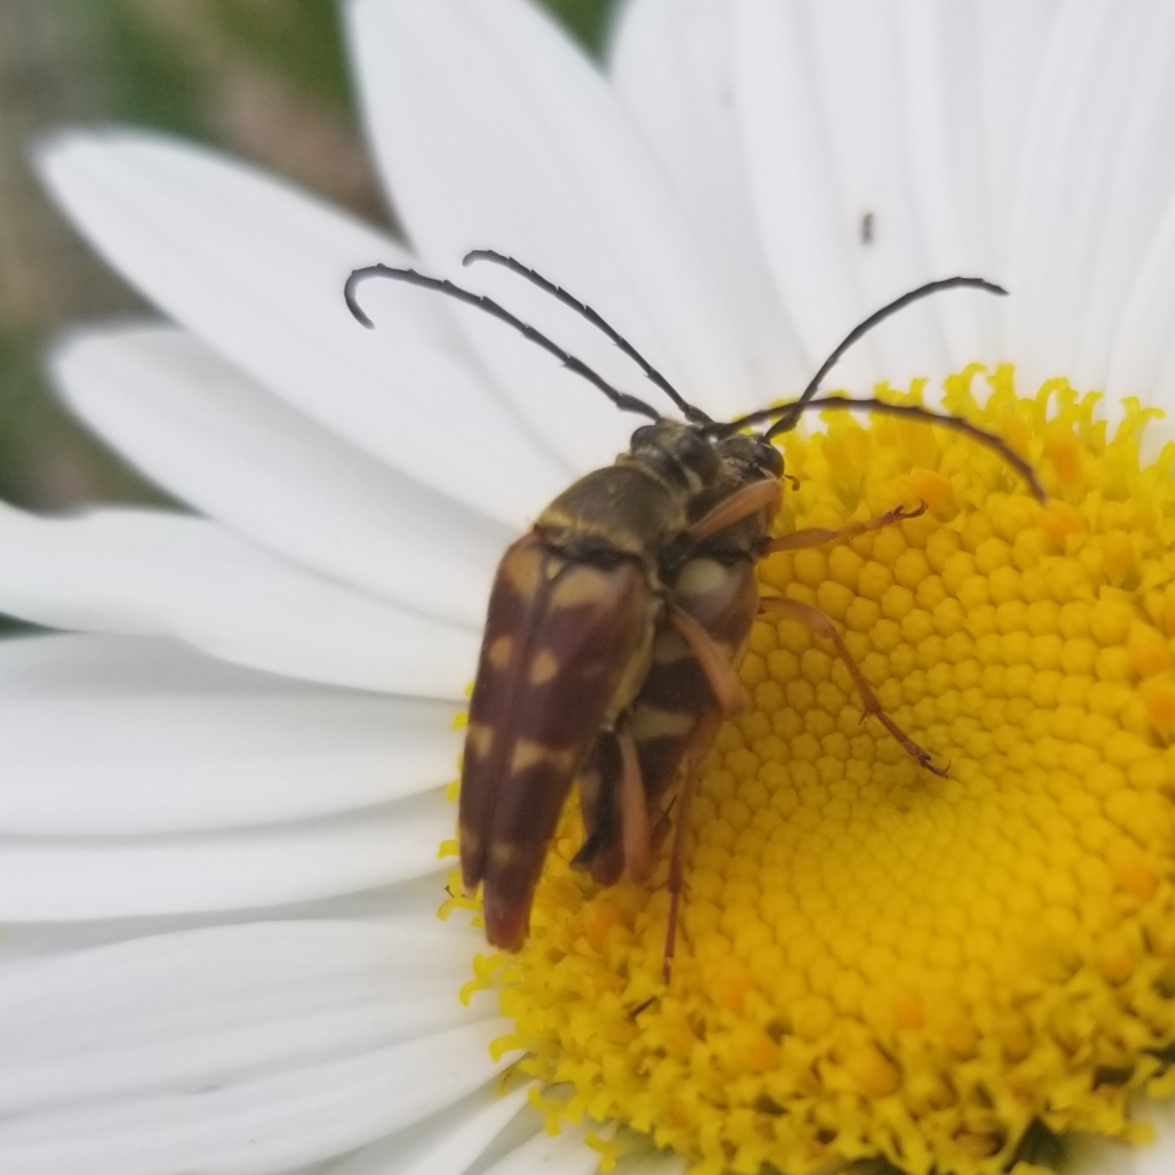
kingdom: Animalia
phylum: Arthropoda
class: Insecta
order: Coleoptera
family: Cerambycidae
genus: Typocerus
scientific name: Typocerus velutinus
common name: Banded longhorn beetle
